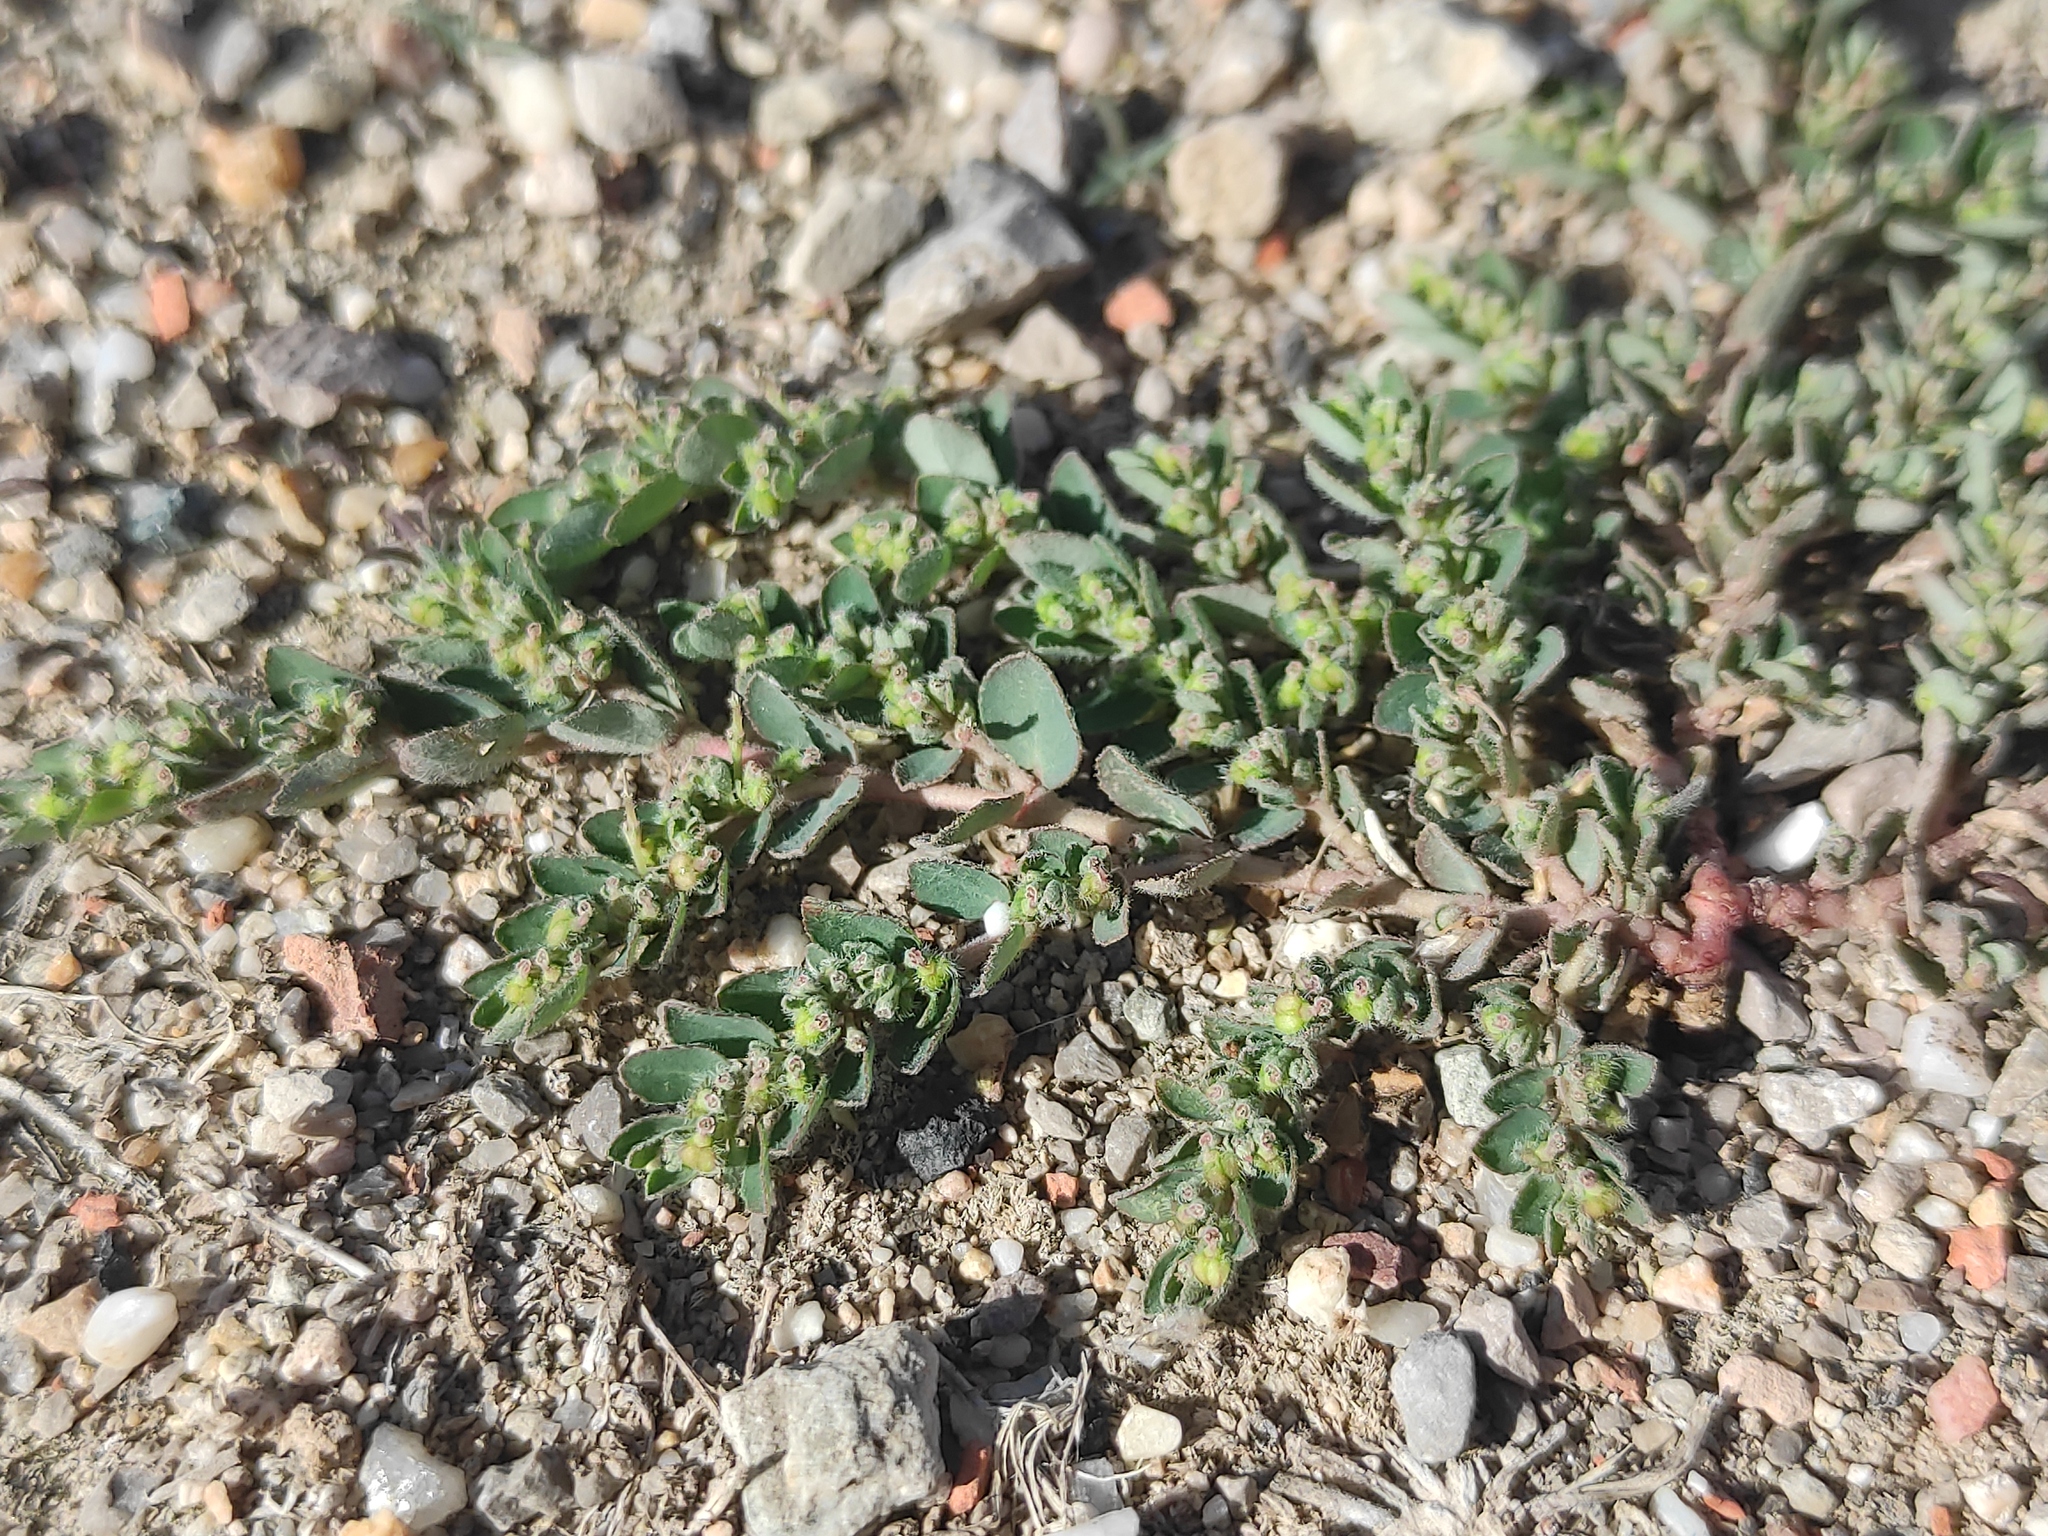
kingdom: Plantae
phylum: Tracheophyta
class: Magnoliopsida
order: Malpighiales
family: Euphorbiaceae
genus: Euphorbia
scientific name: Euphorbia prostrata
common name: Prostrate sandmat
